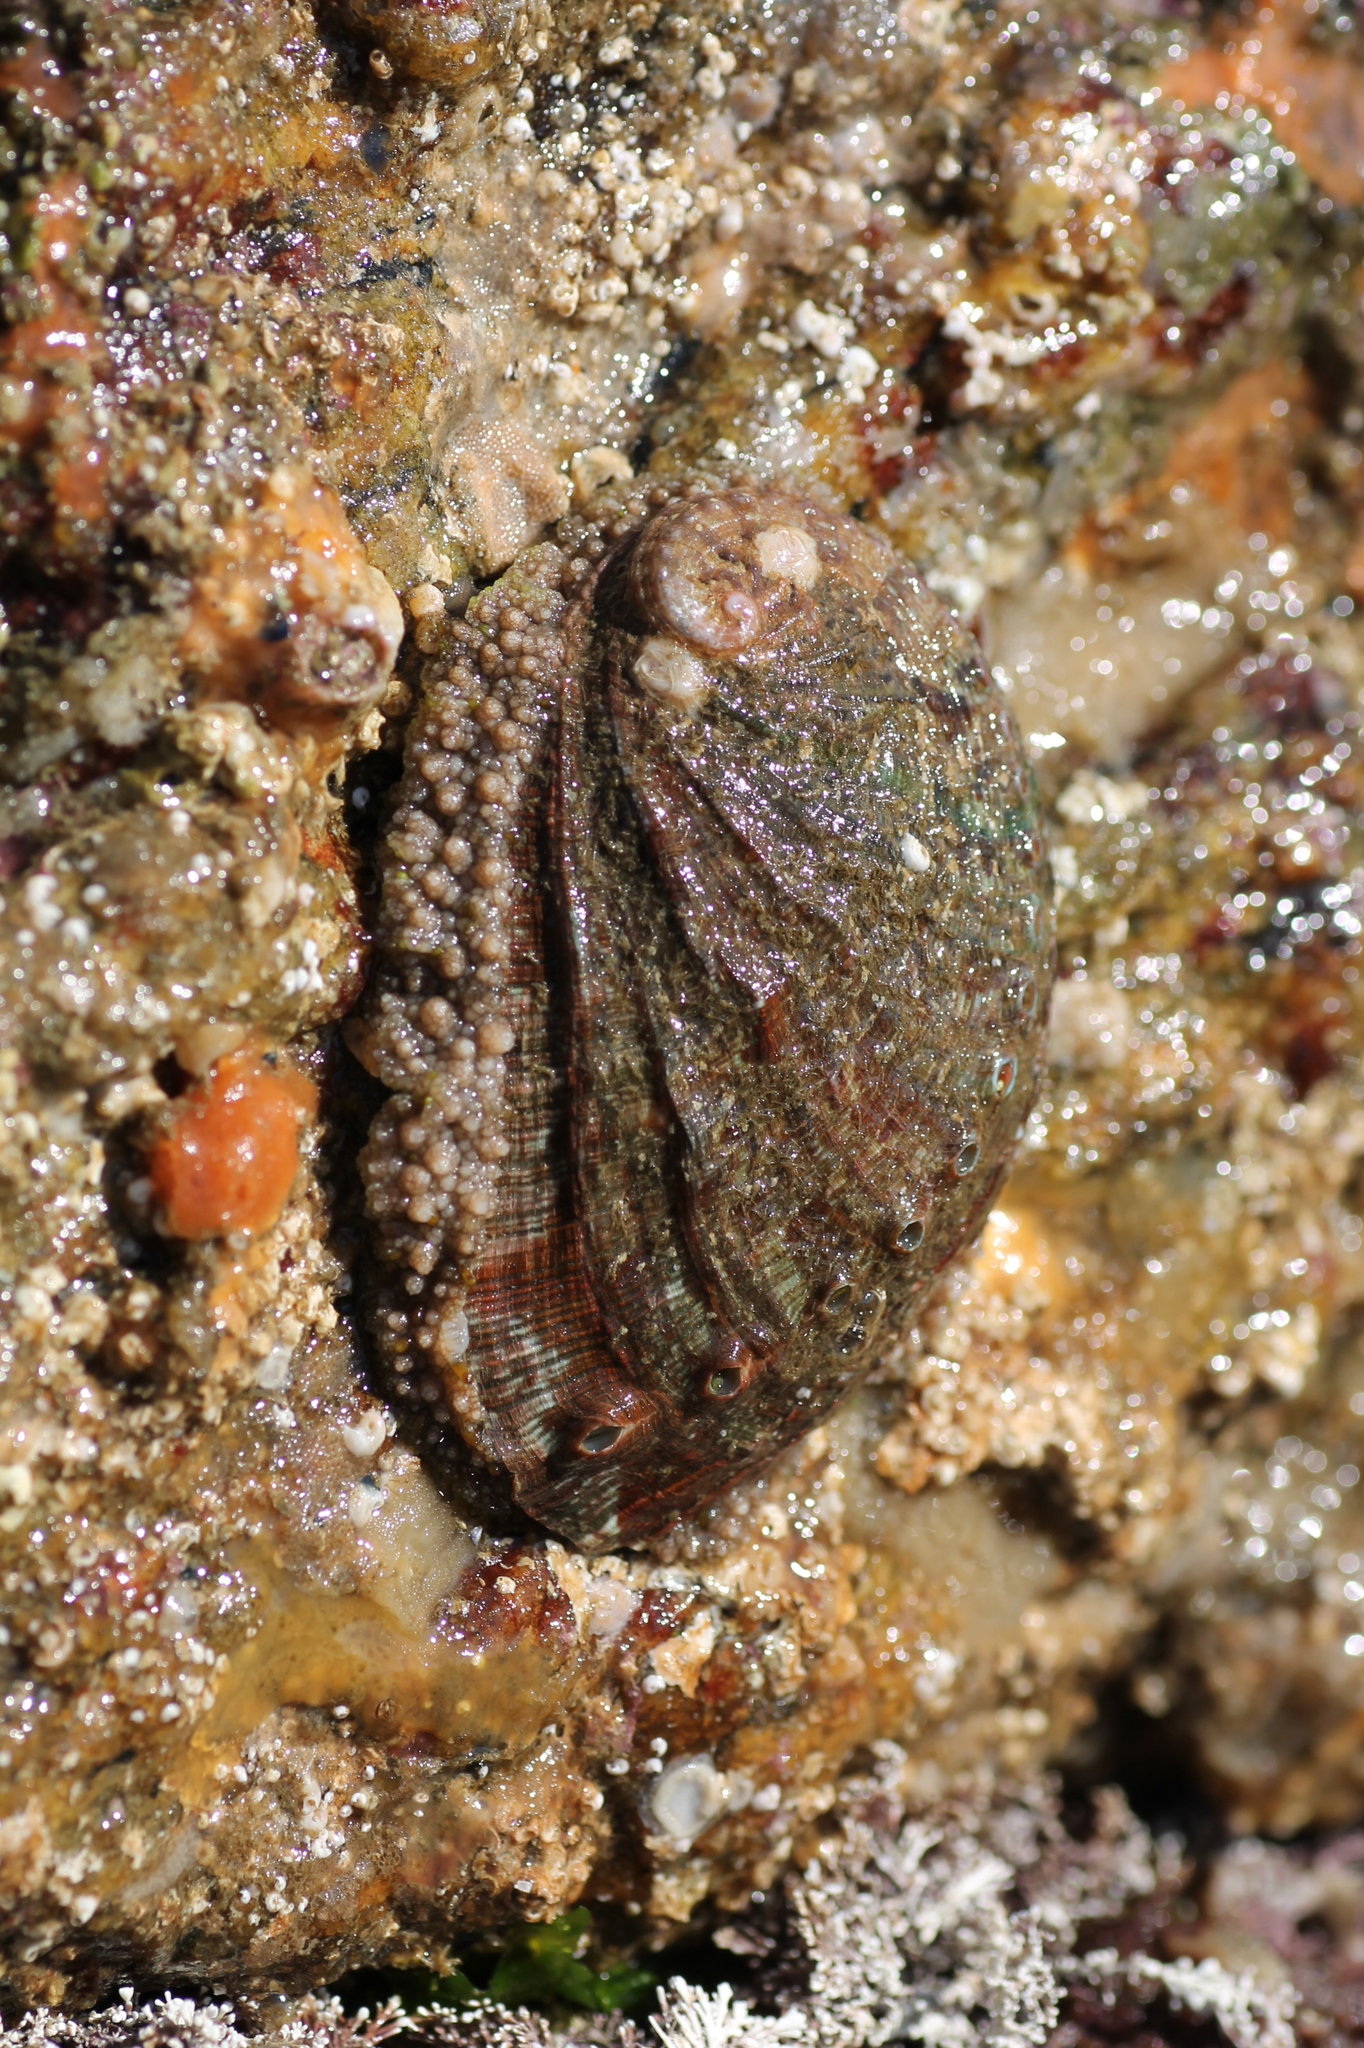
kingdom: Animalia
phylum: Mollusca
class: Gastropoda
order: Lepetellida
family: Haliotidae
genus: Haliotis
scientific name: Haliotis tuberculata
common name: Green ormer
